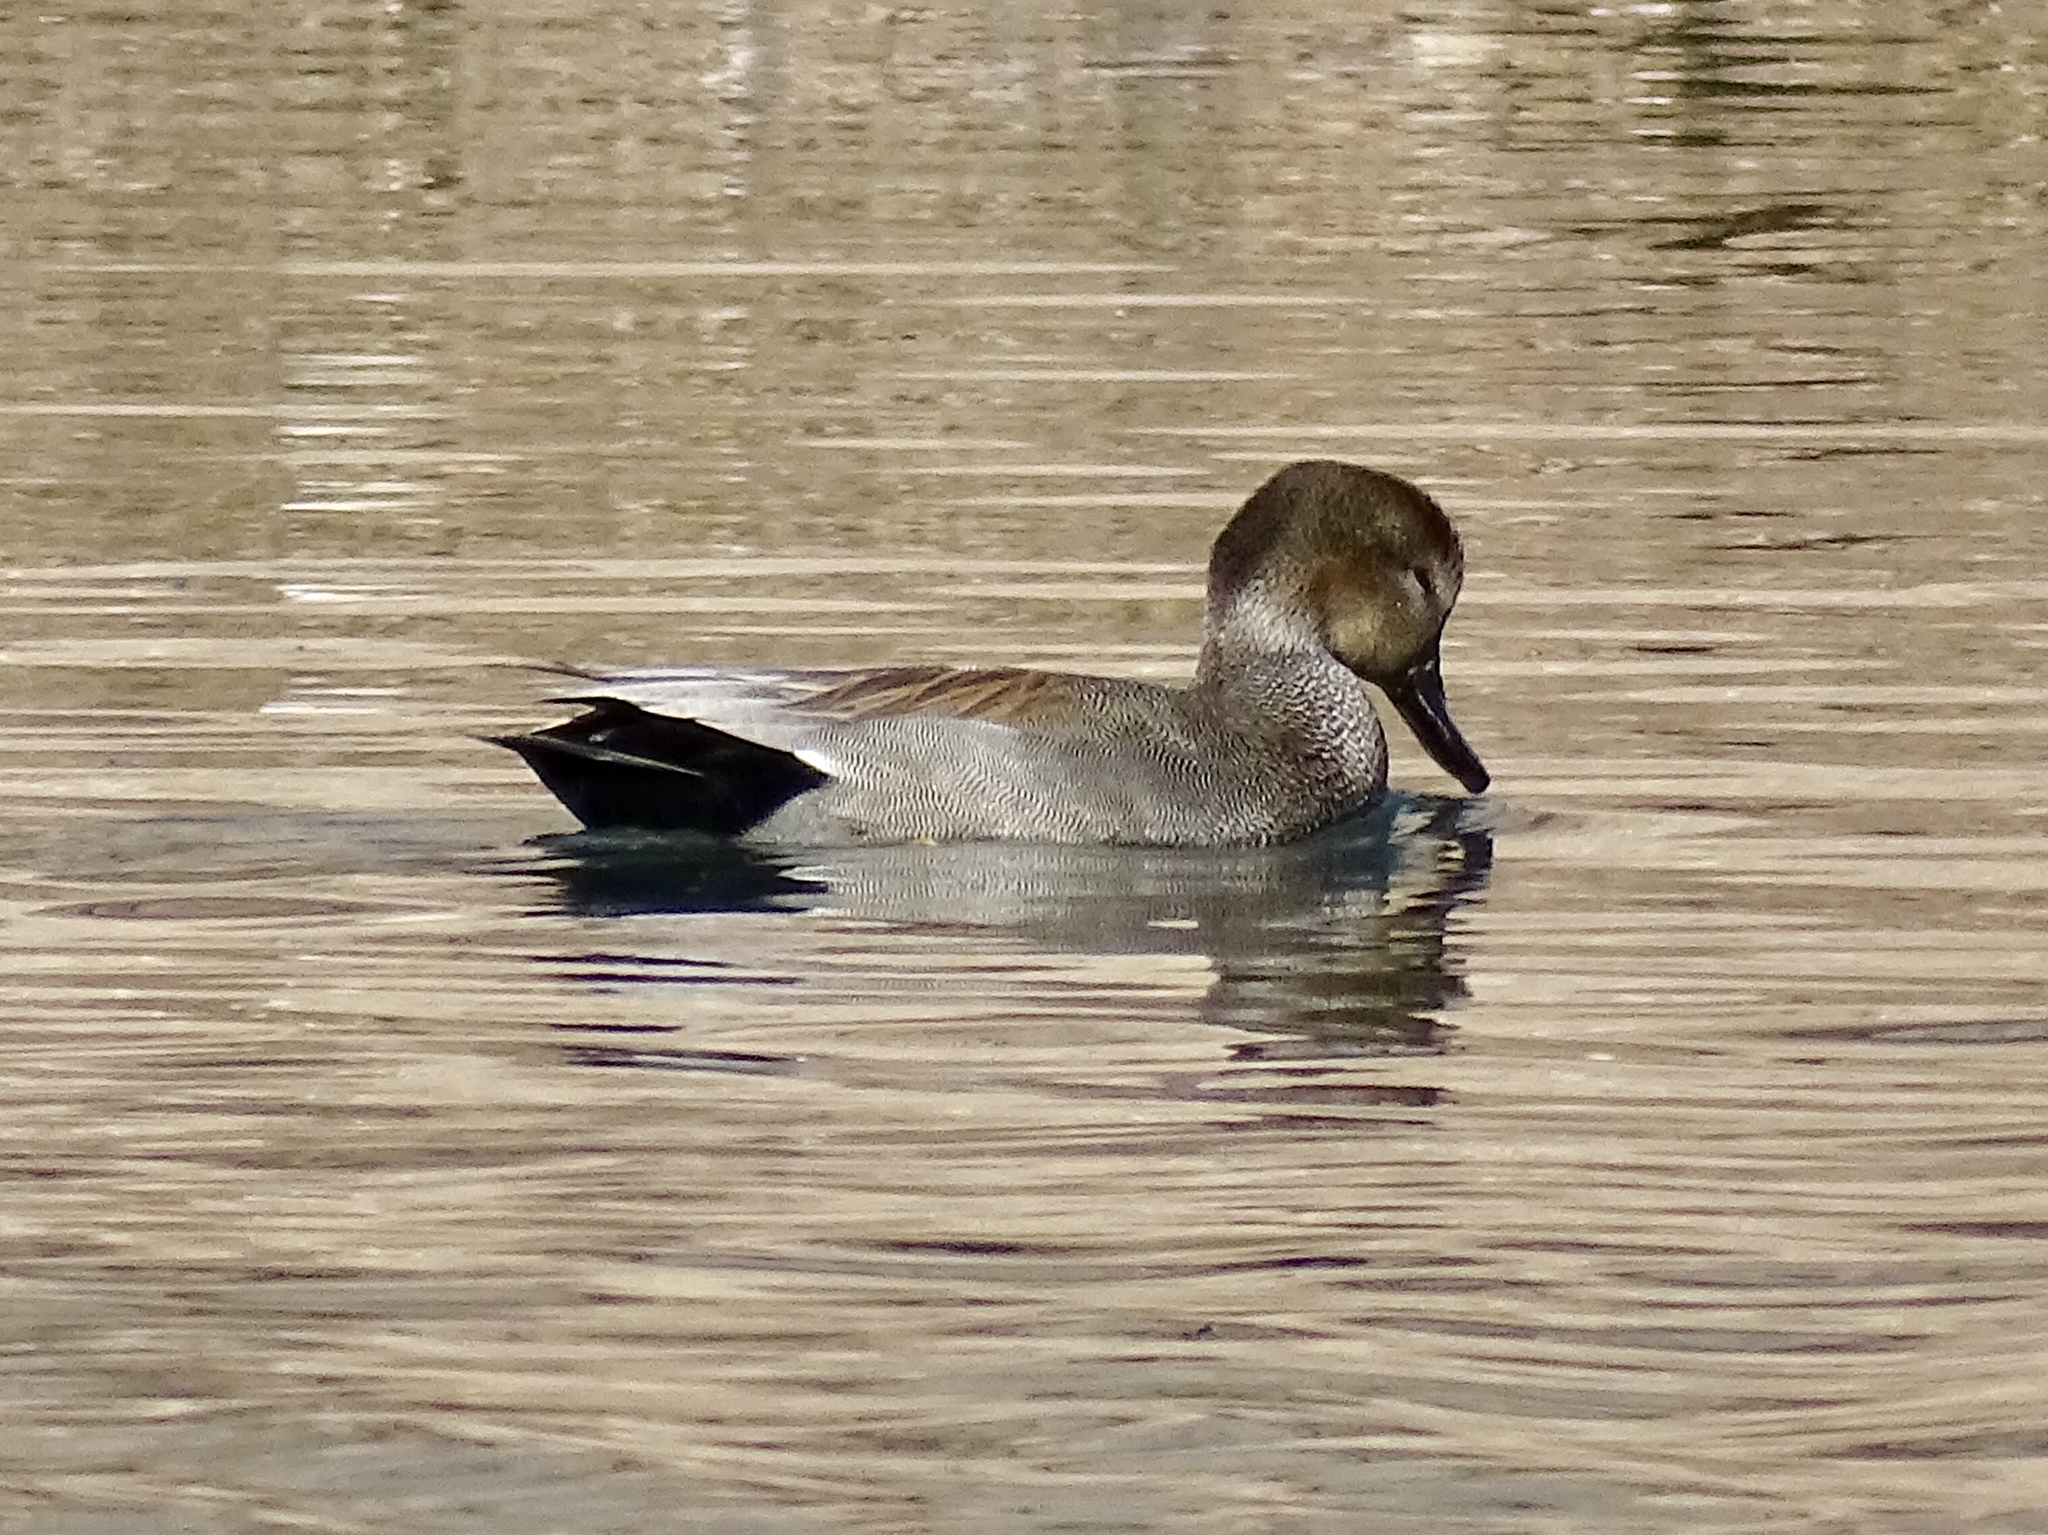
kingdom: Animalia
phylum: Chordata
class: Aves
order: Anseriformes
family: Anatidae
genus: Mareca
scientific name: Mareca strepera
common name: Gadwall
